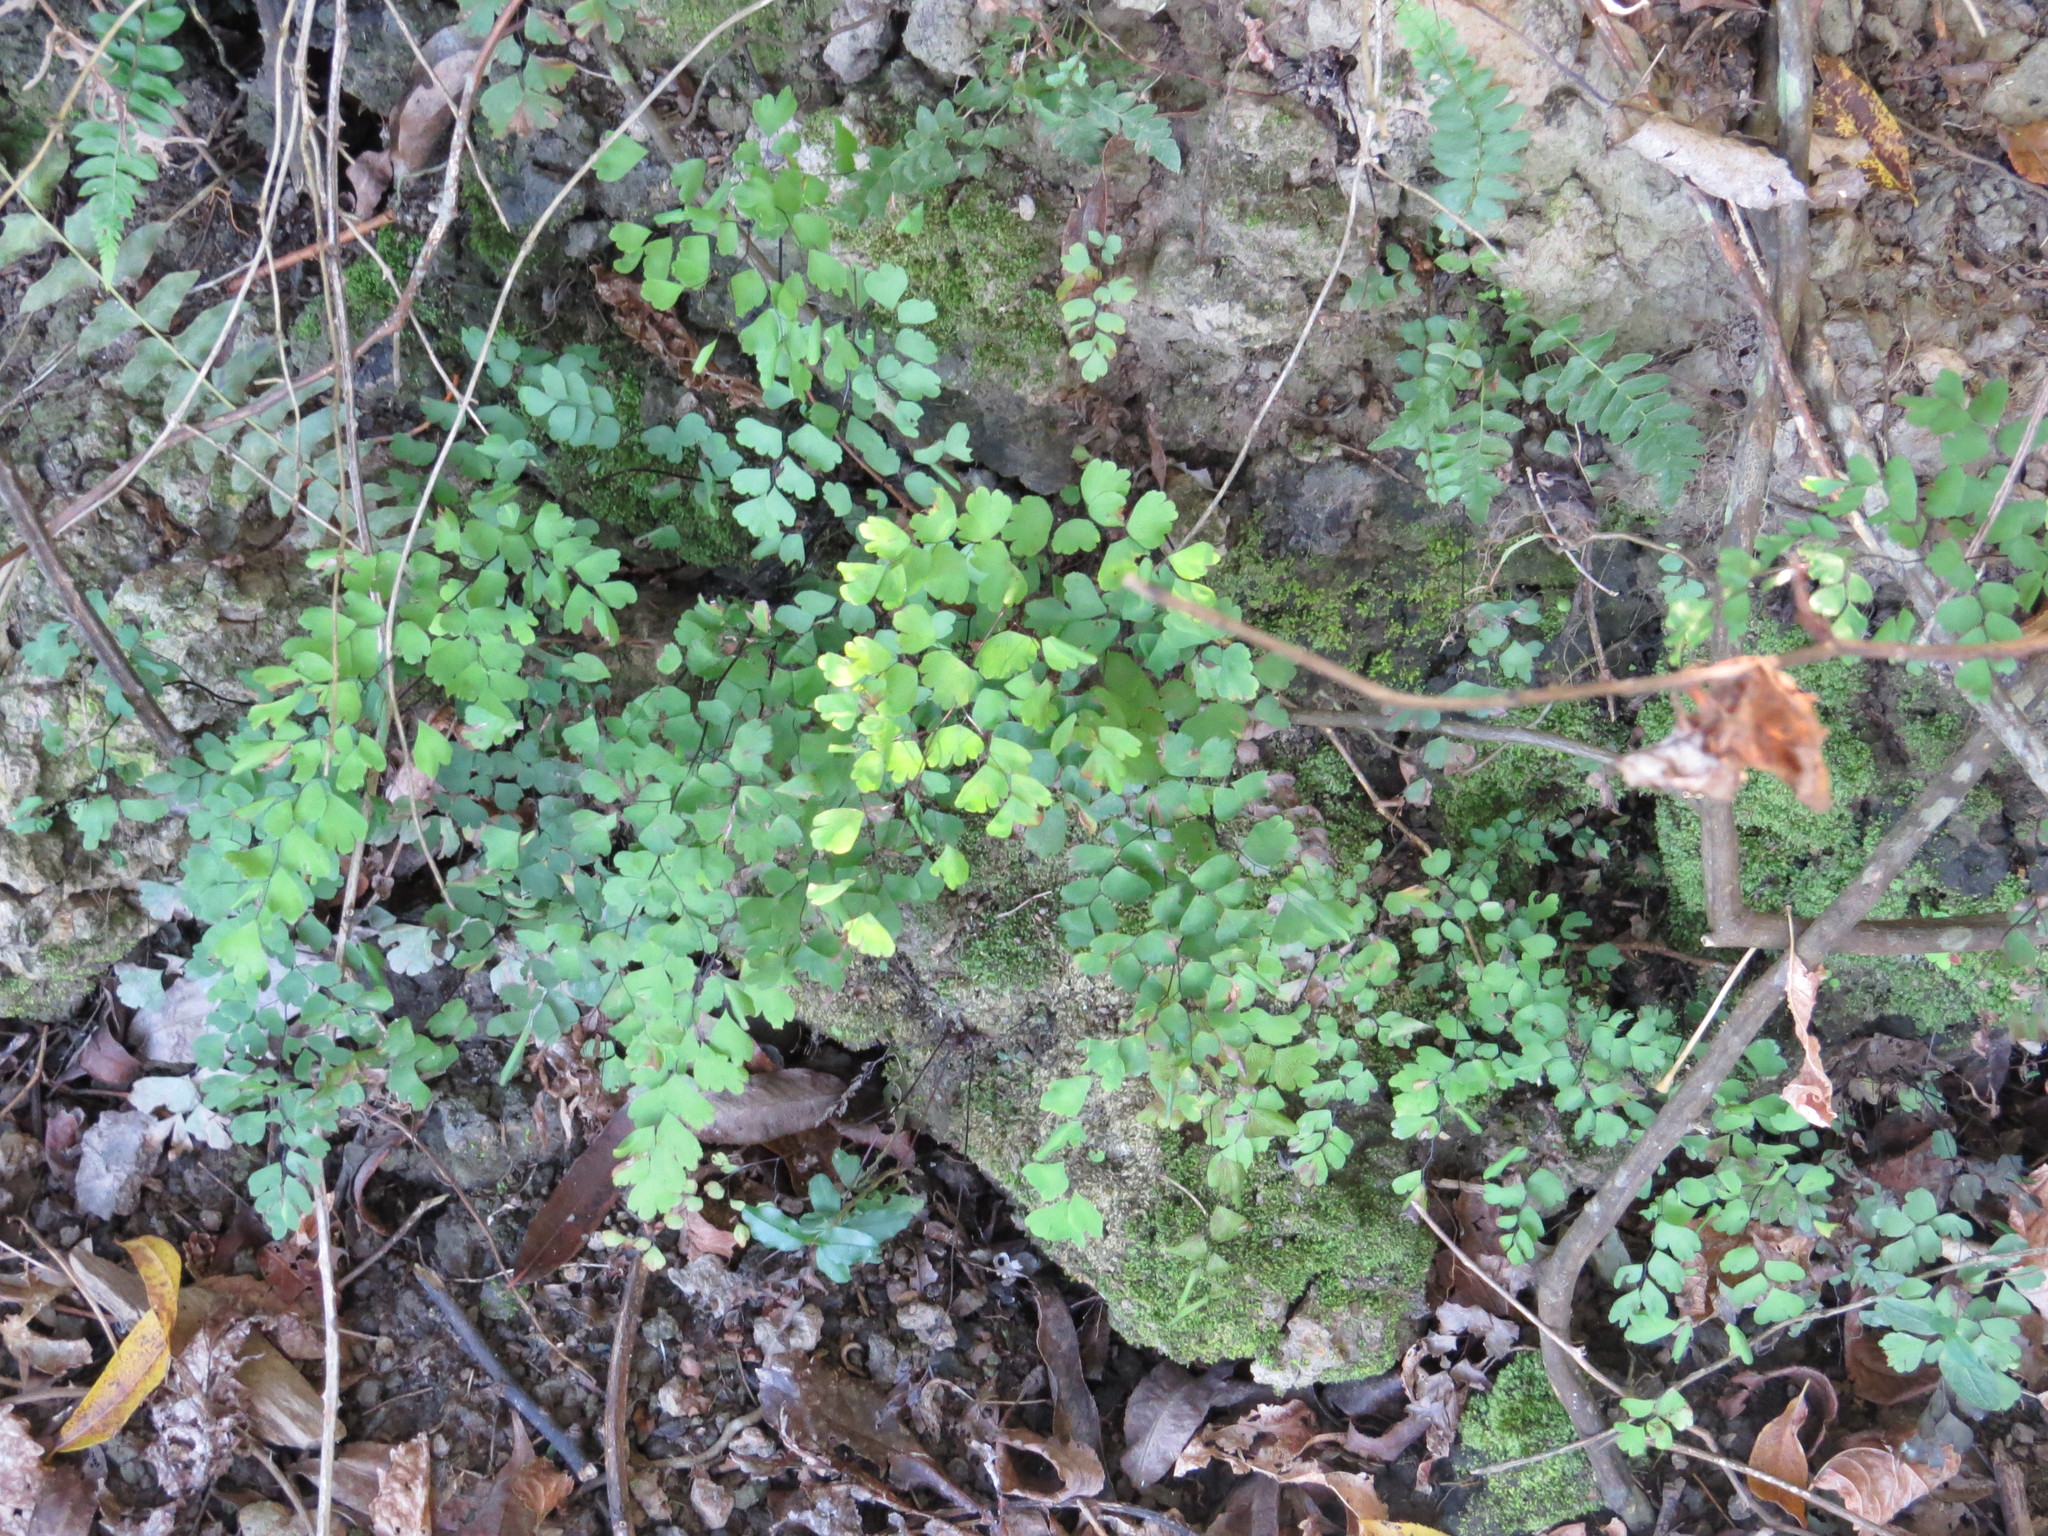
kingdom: Plantae
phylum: Tracheophyta
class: Polypodiopsida
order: Polypodiales
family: Pteridaceae
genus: Adiantum
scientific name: Adiantum raddianum
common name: Delta maidenhair fern
